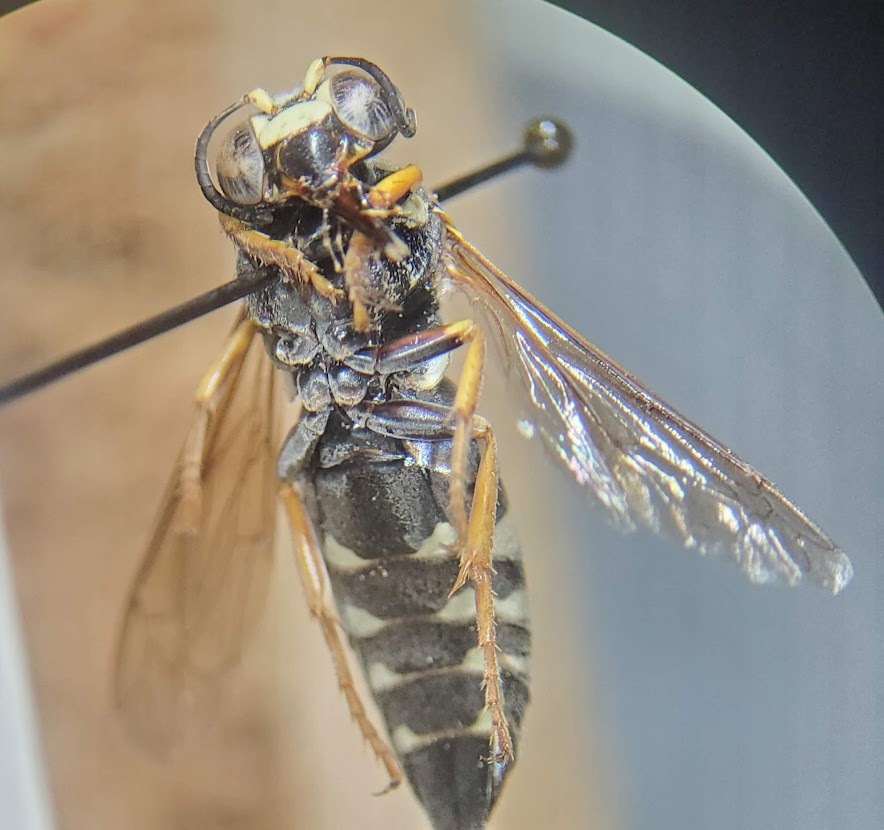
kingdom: Animalia
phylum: Arthropoda
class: Insecta
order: Hymenoptera
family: Crabronidae
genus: Bicyrtes
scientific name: Bicyrtes ventralis
